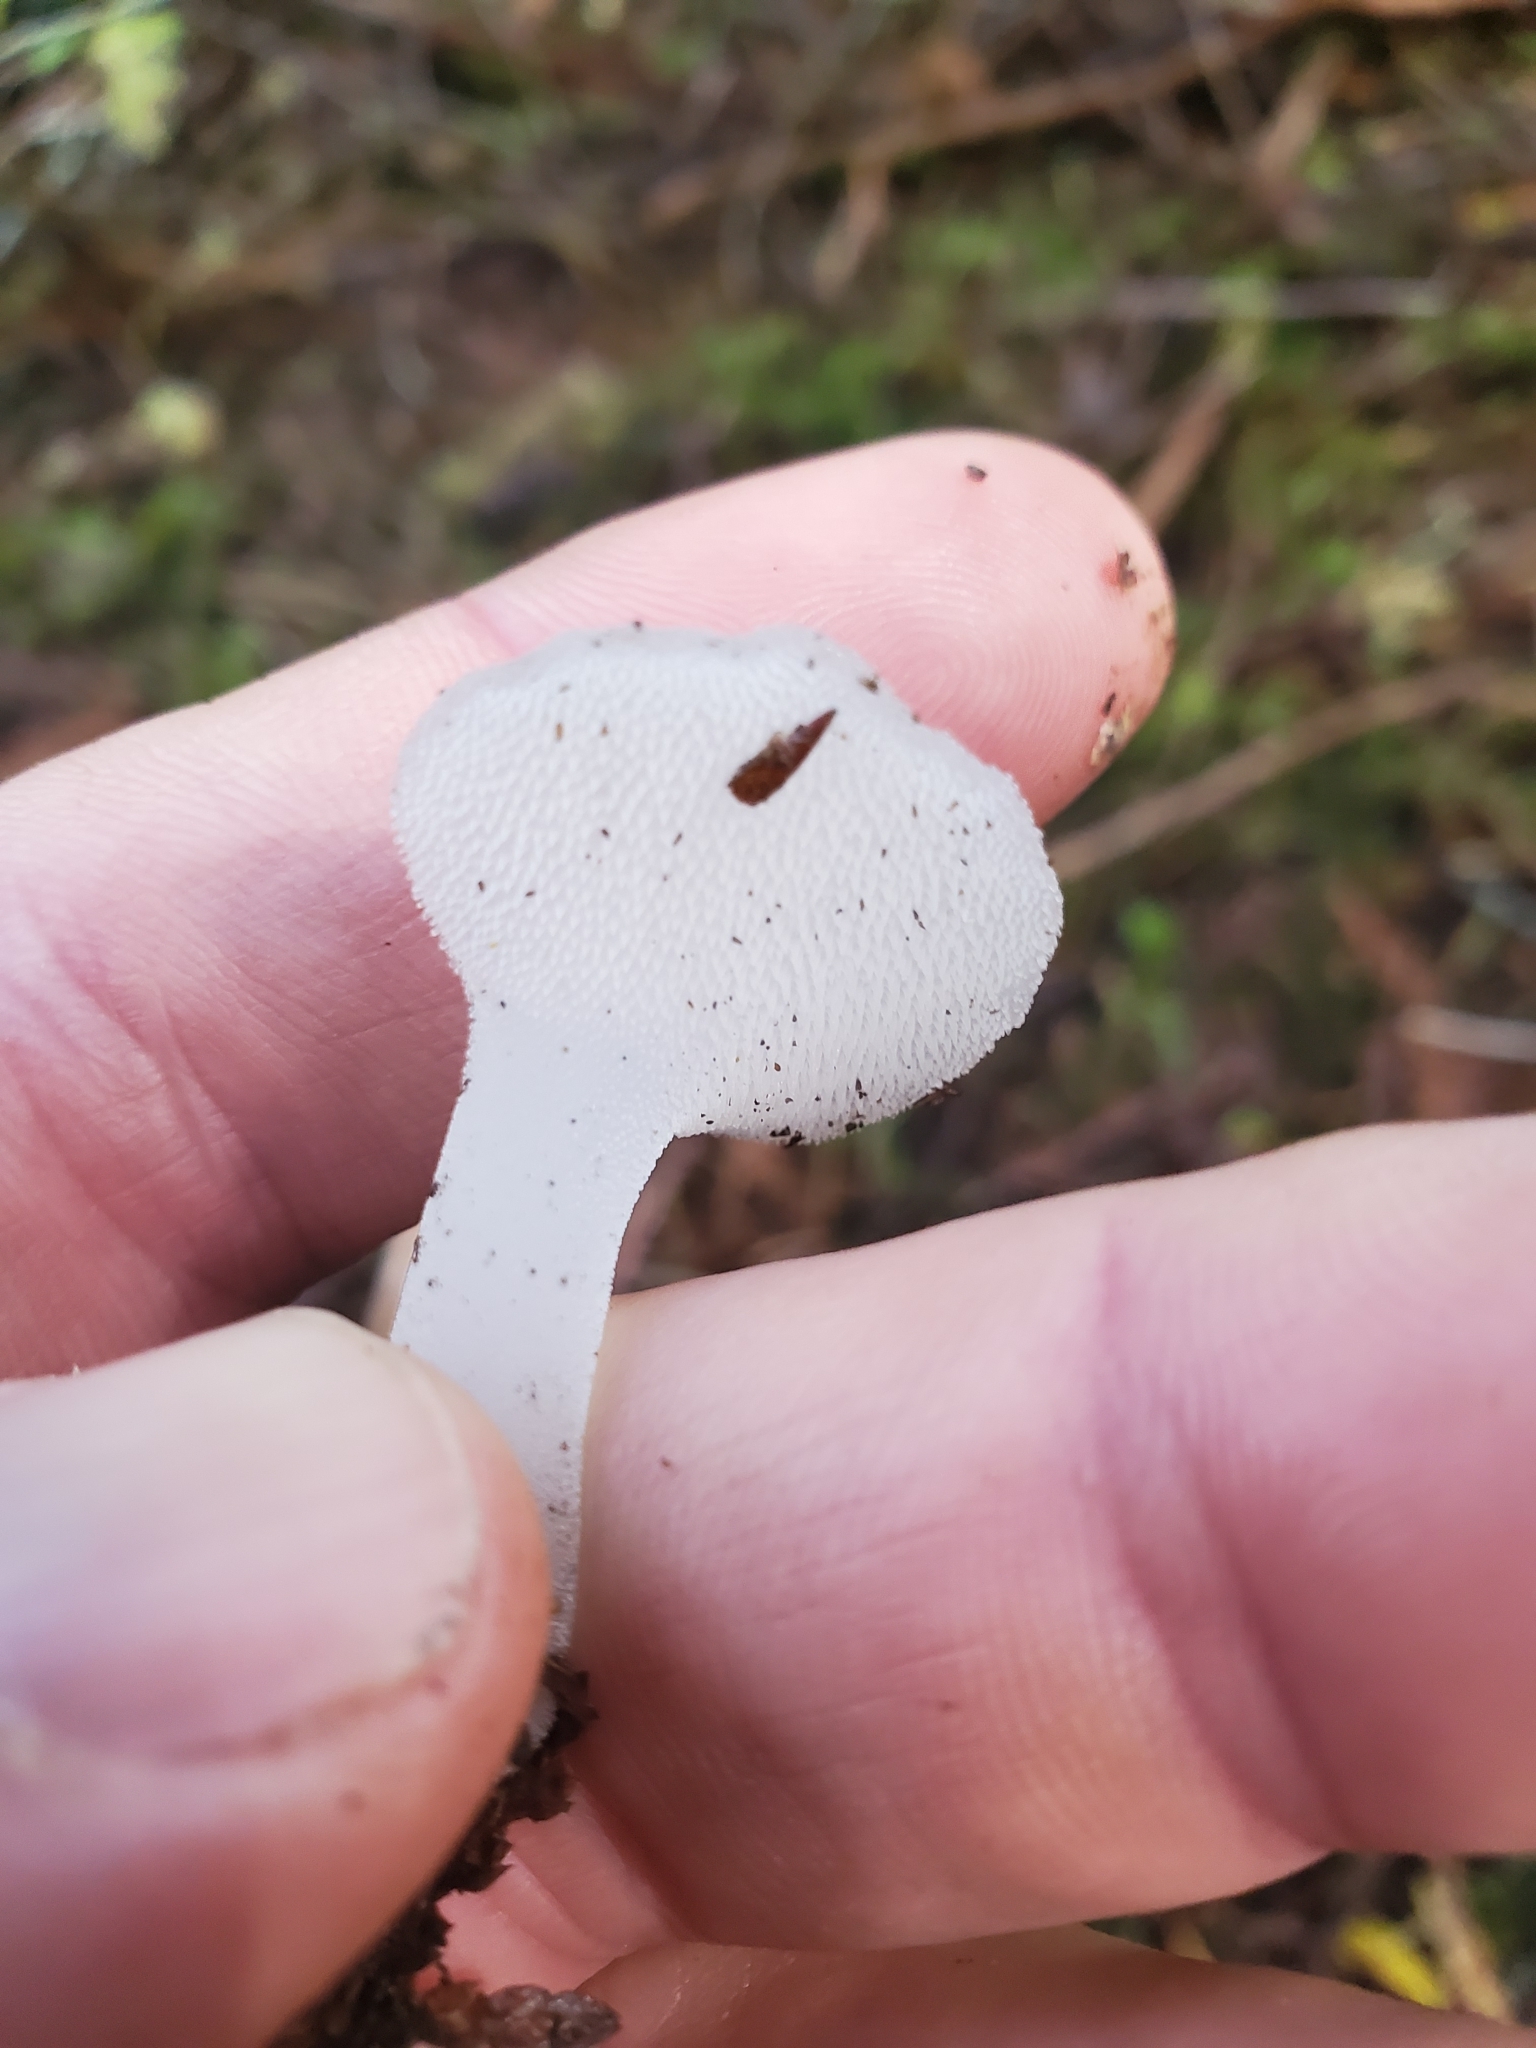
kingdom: Fungi
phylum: Basidiomycota
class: Agaricomycetes
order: Auriculariales
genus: Pseudohydnum
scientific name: Pseudohydnum gelatinosum
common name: Jelly tongue
